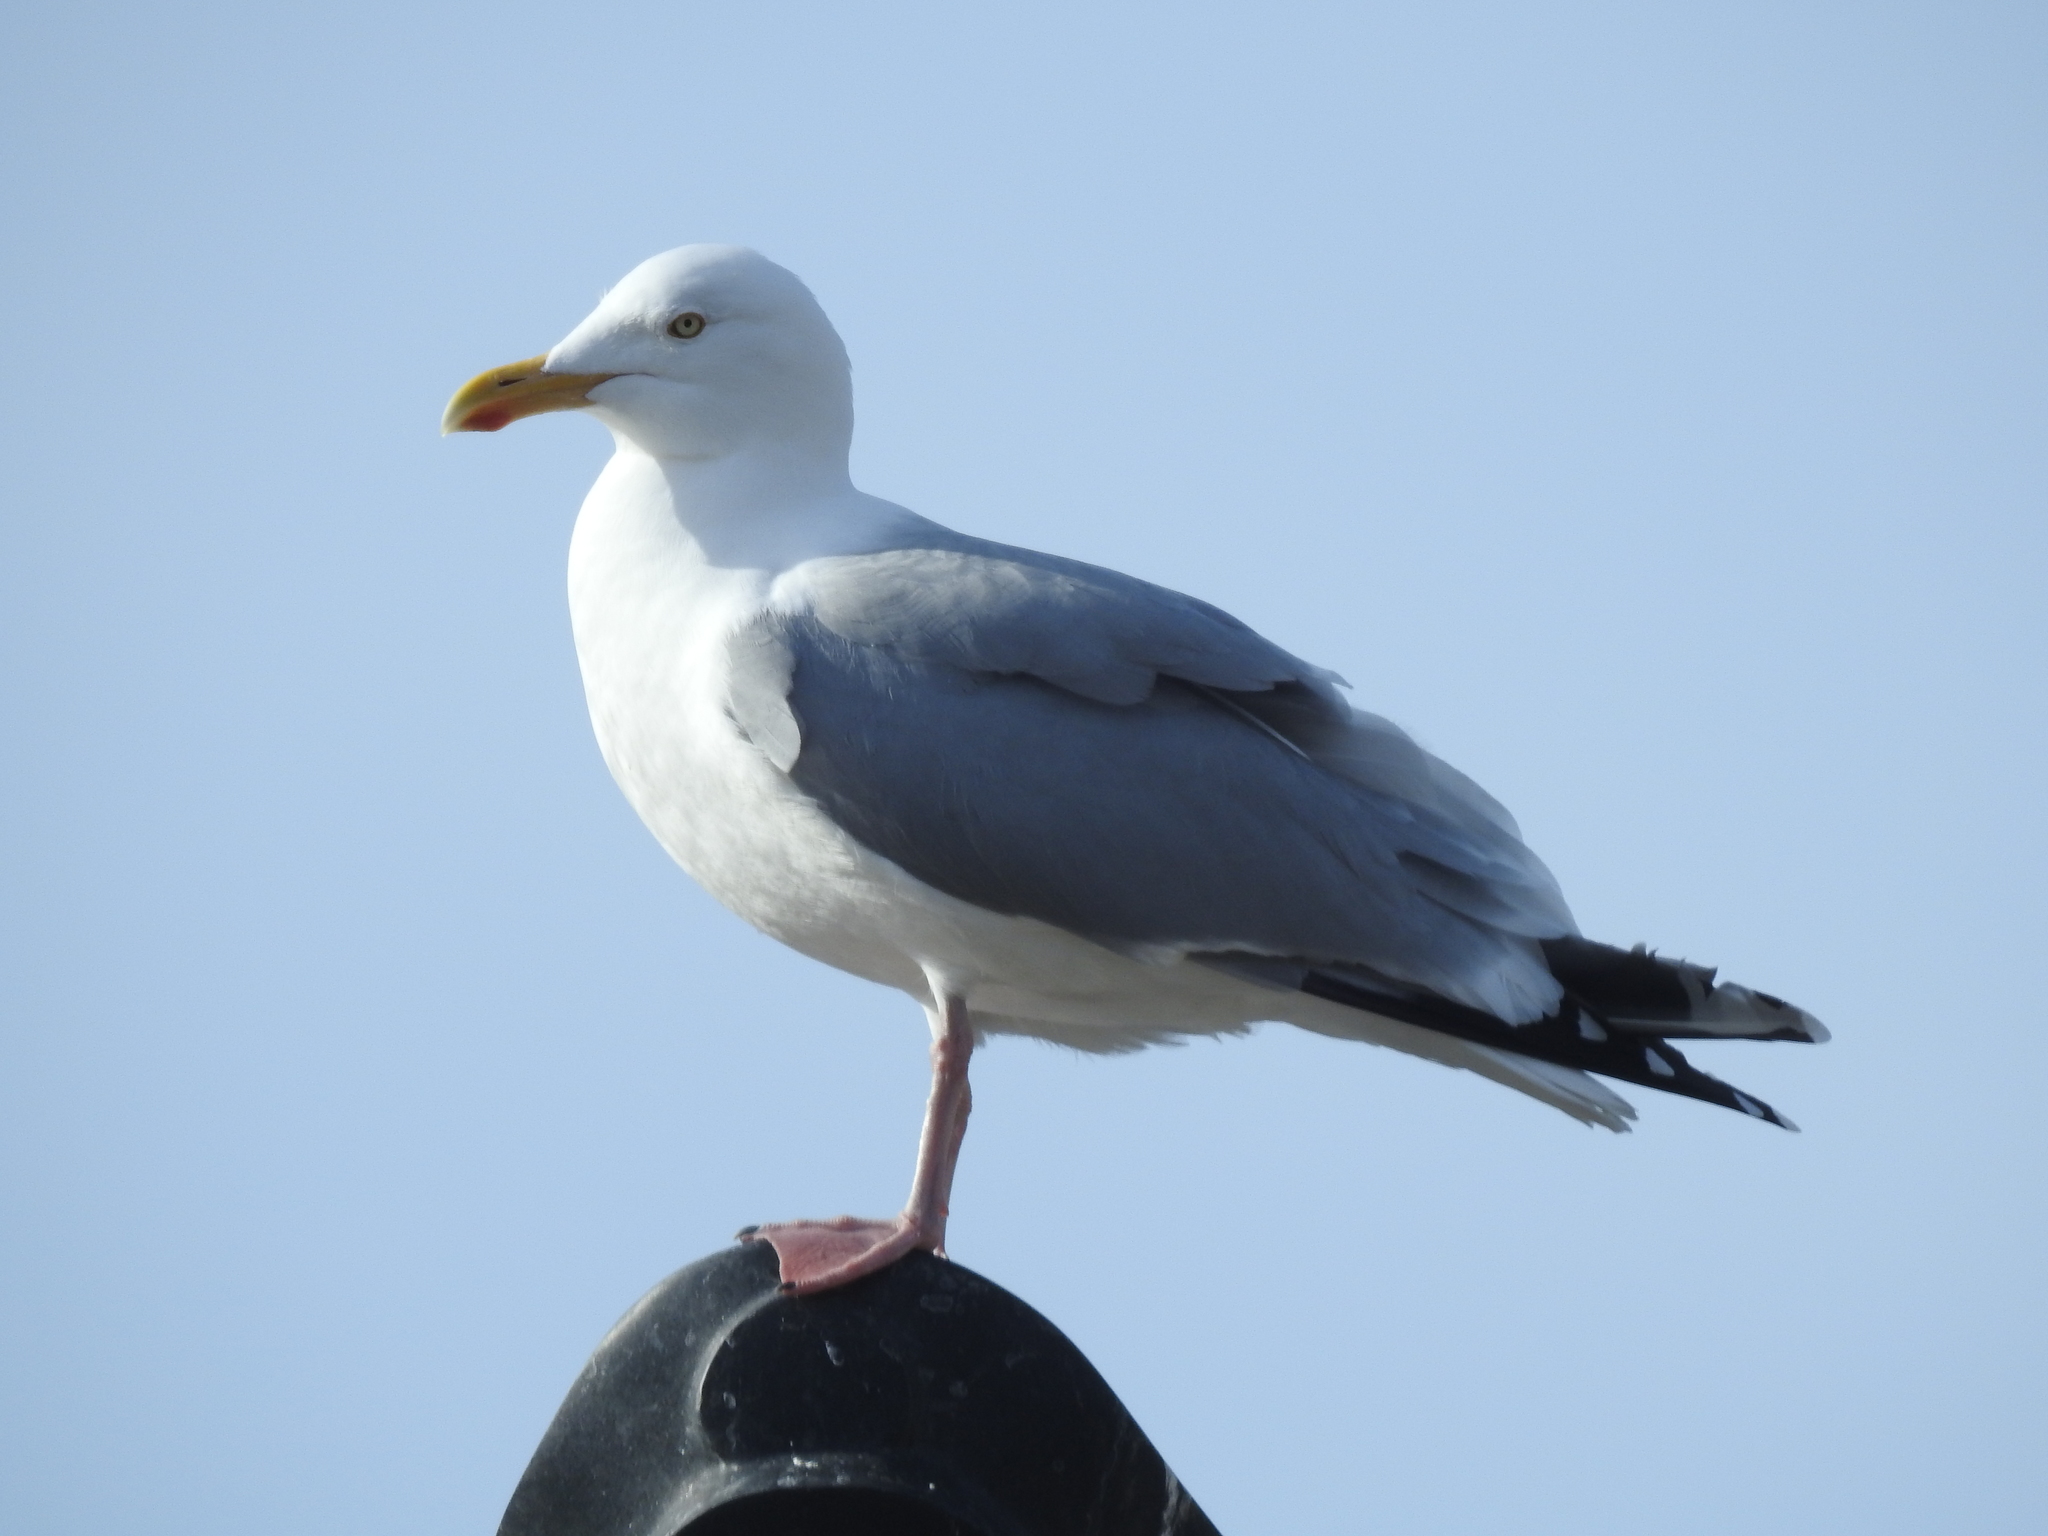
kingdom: Animalia
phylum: Chordata
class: Aves
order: Charadriiformes
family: Laridae
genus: Larus
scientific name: Larus argentatus
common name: Herring gull
